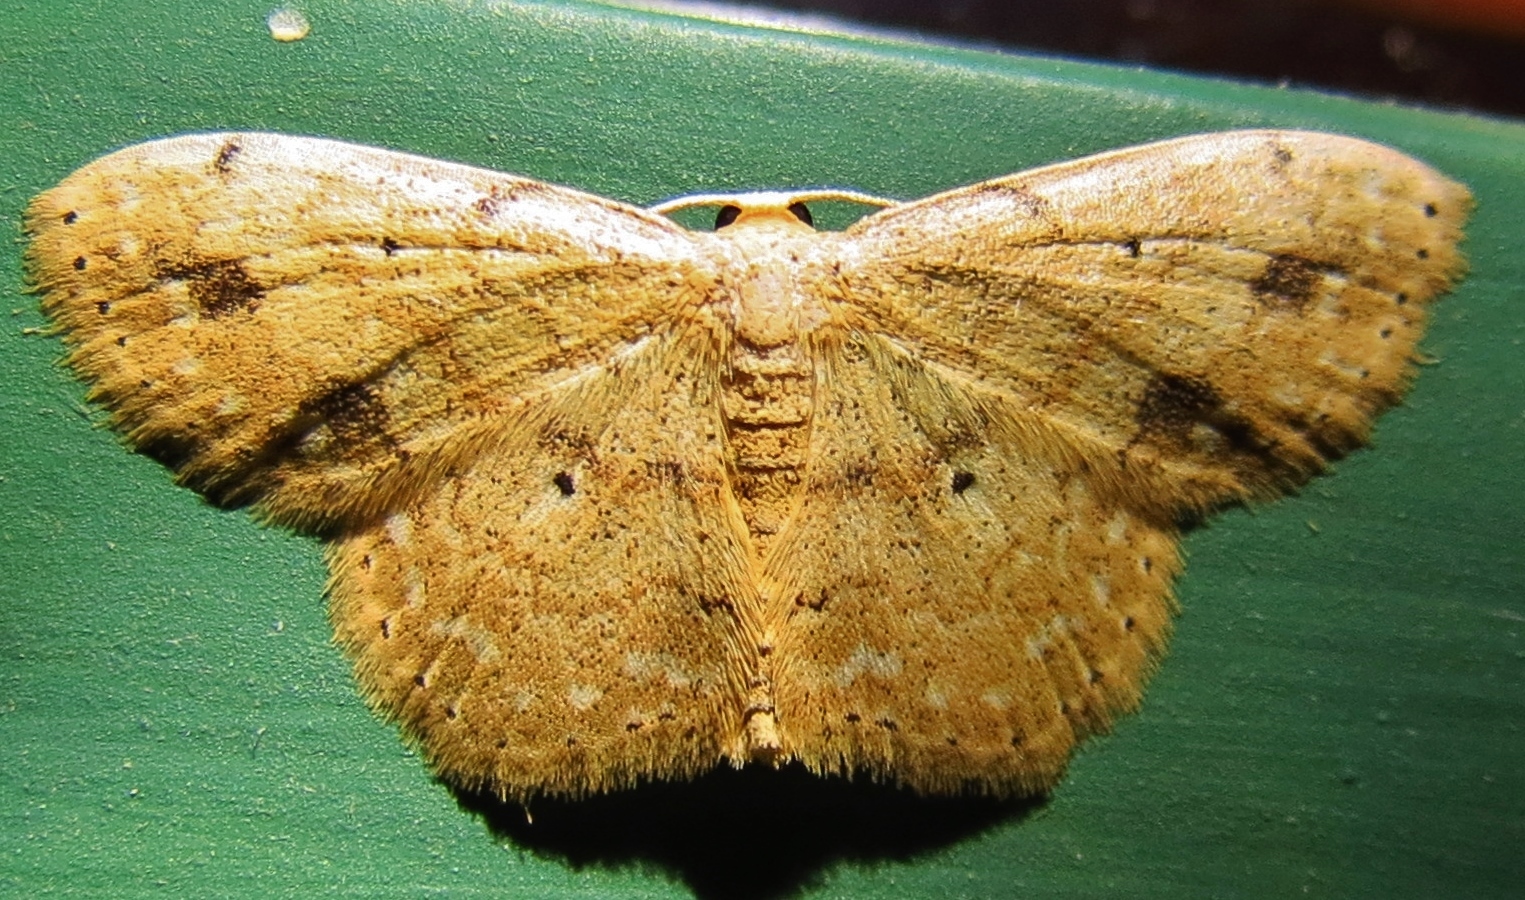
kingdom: Animalia
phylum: Arthropoda
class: Insecta
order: Lepidoptera
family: Geometridae
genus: Scopula
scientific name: Scopula compensata
